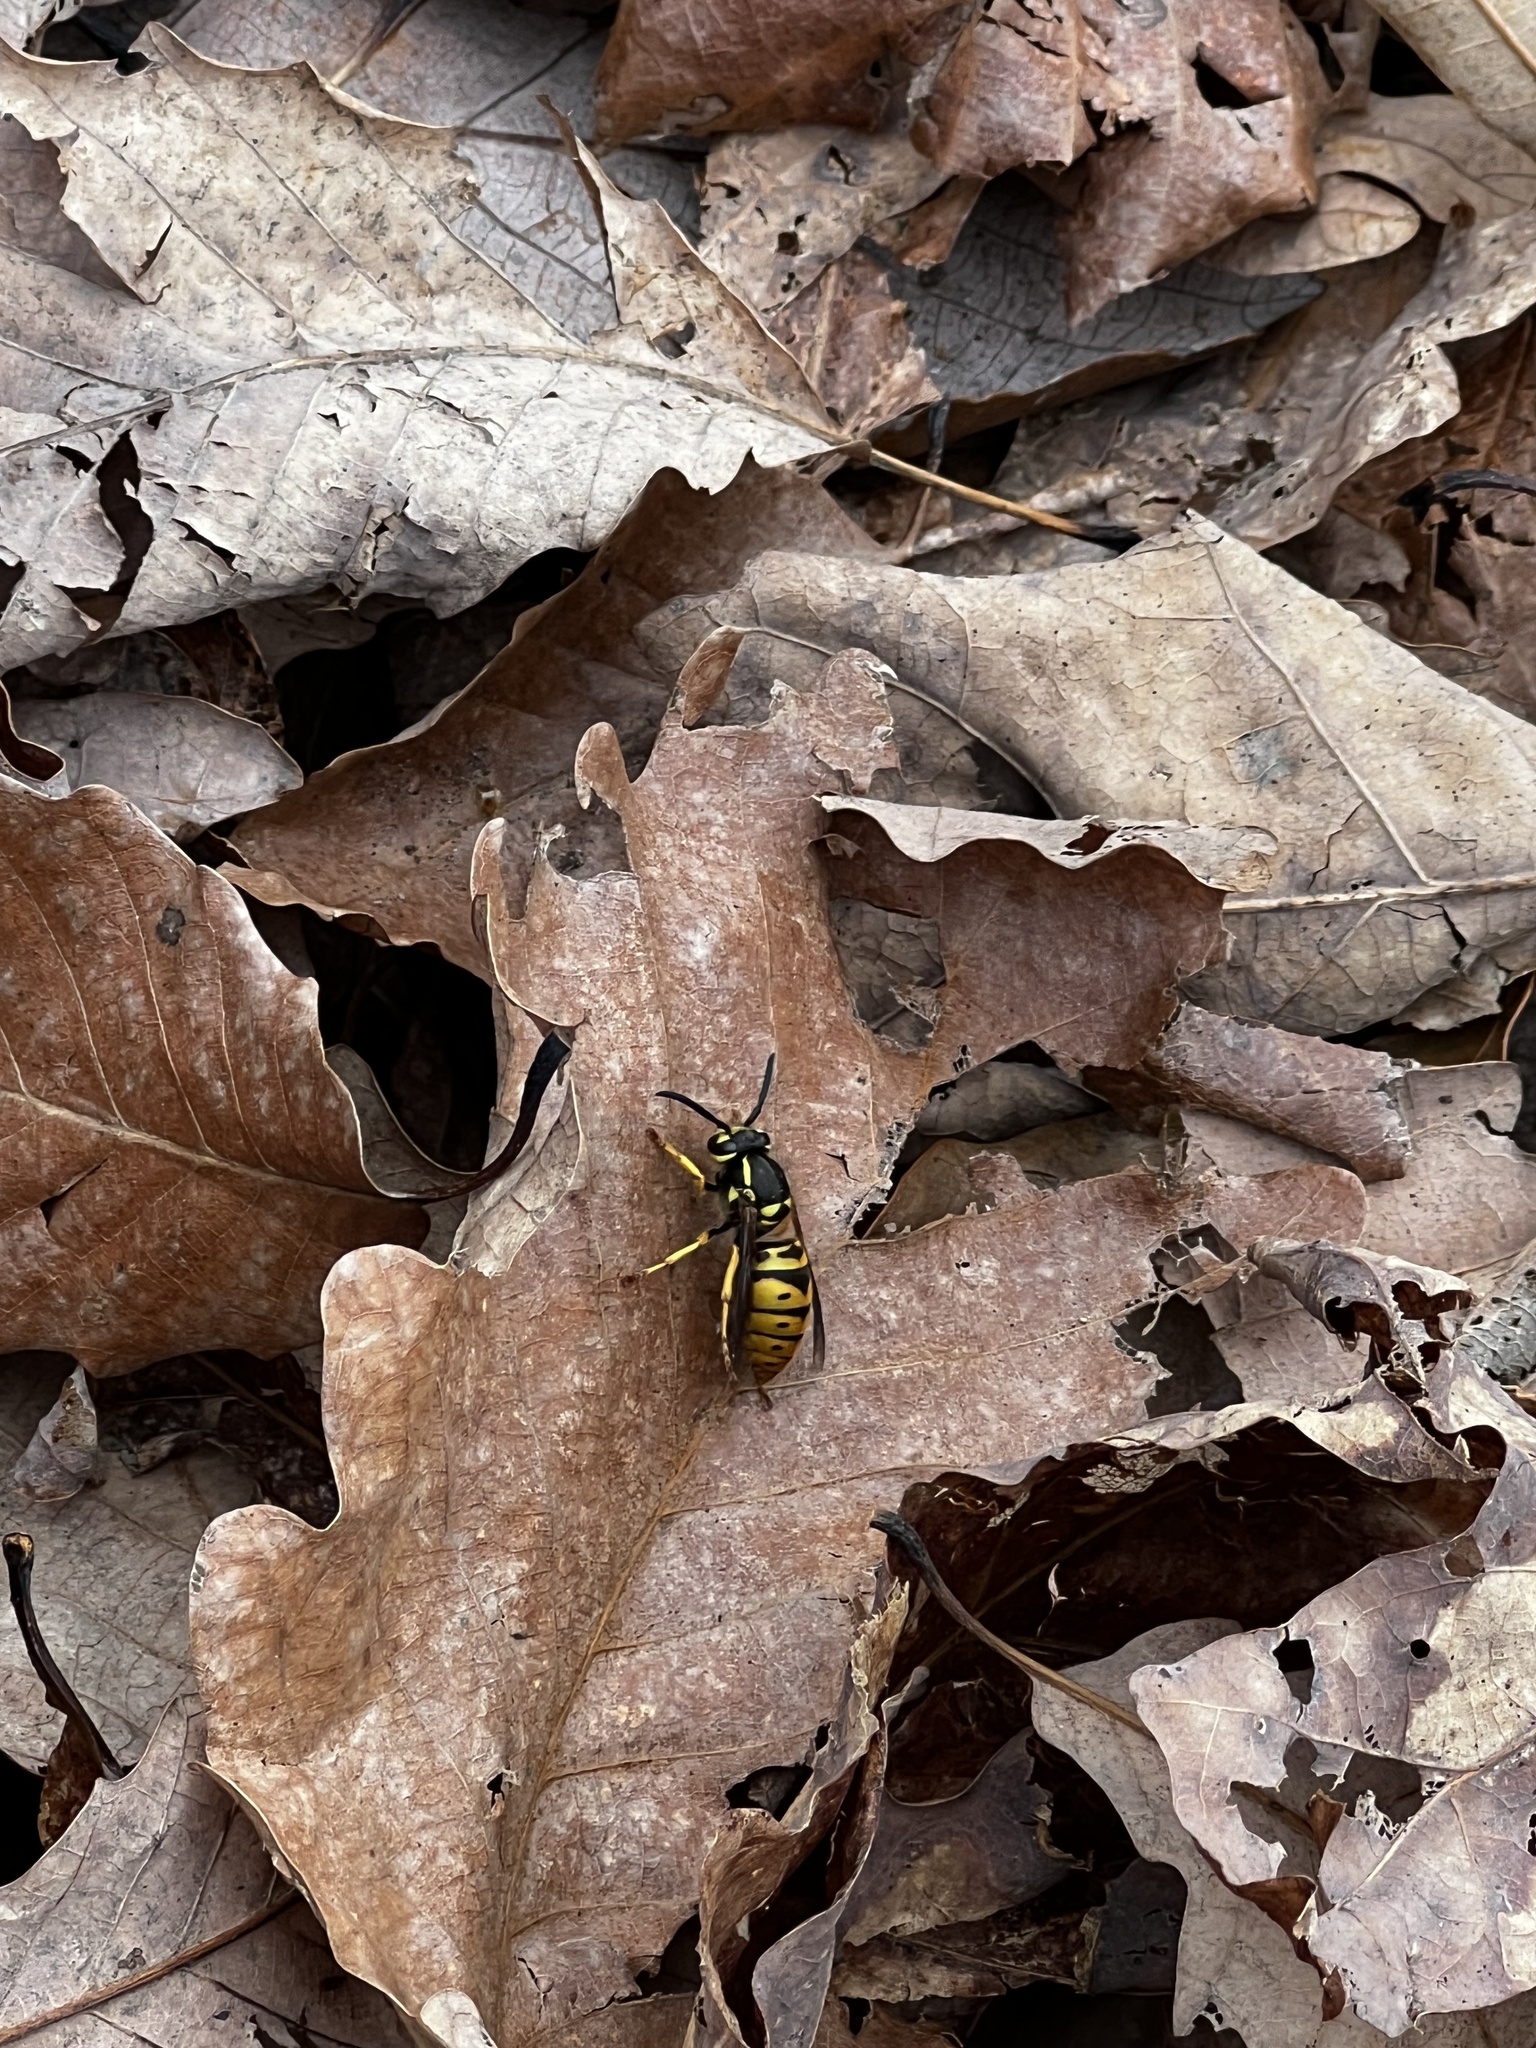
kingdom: Animalia
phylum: Arthropoda
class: Insecta
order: Hymenoptera
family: Vespidae
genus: Vespula
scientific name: Vespula maculifrons
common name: Eastern yellowjacket
